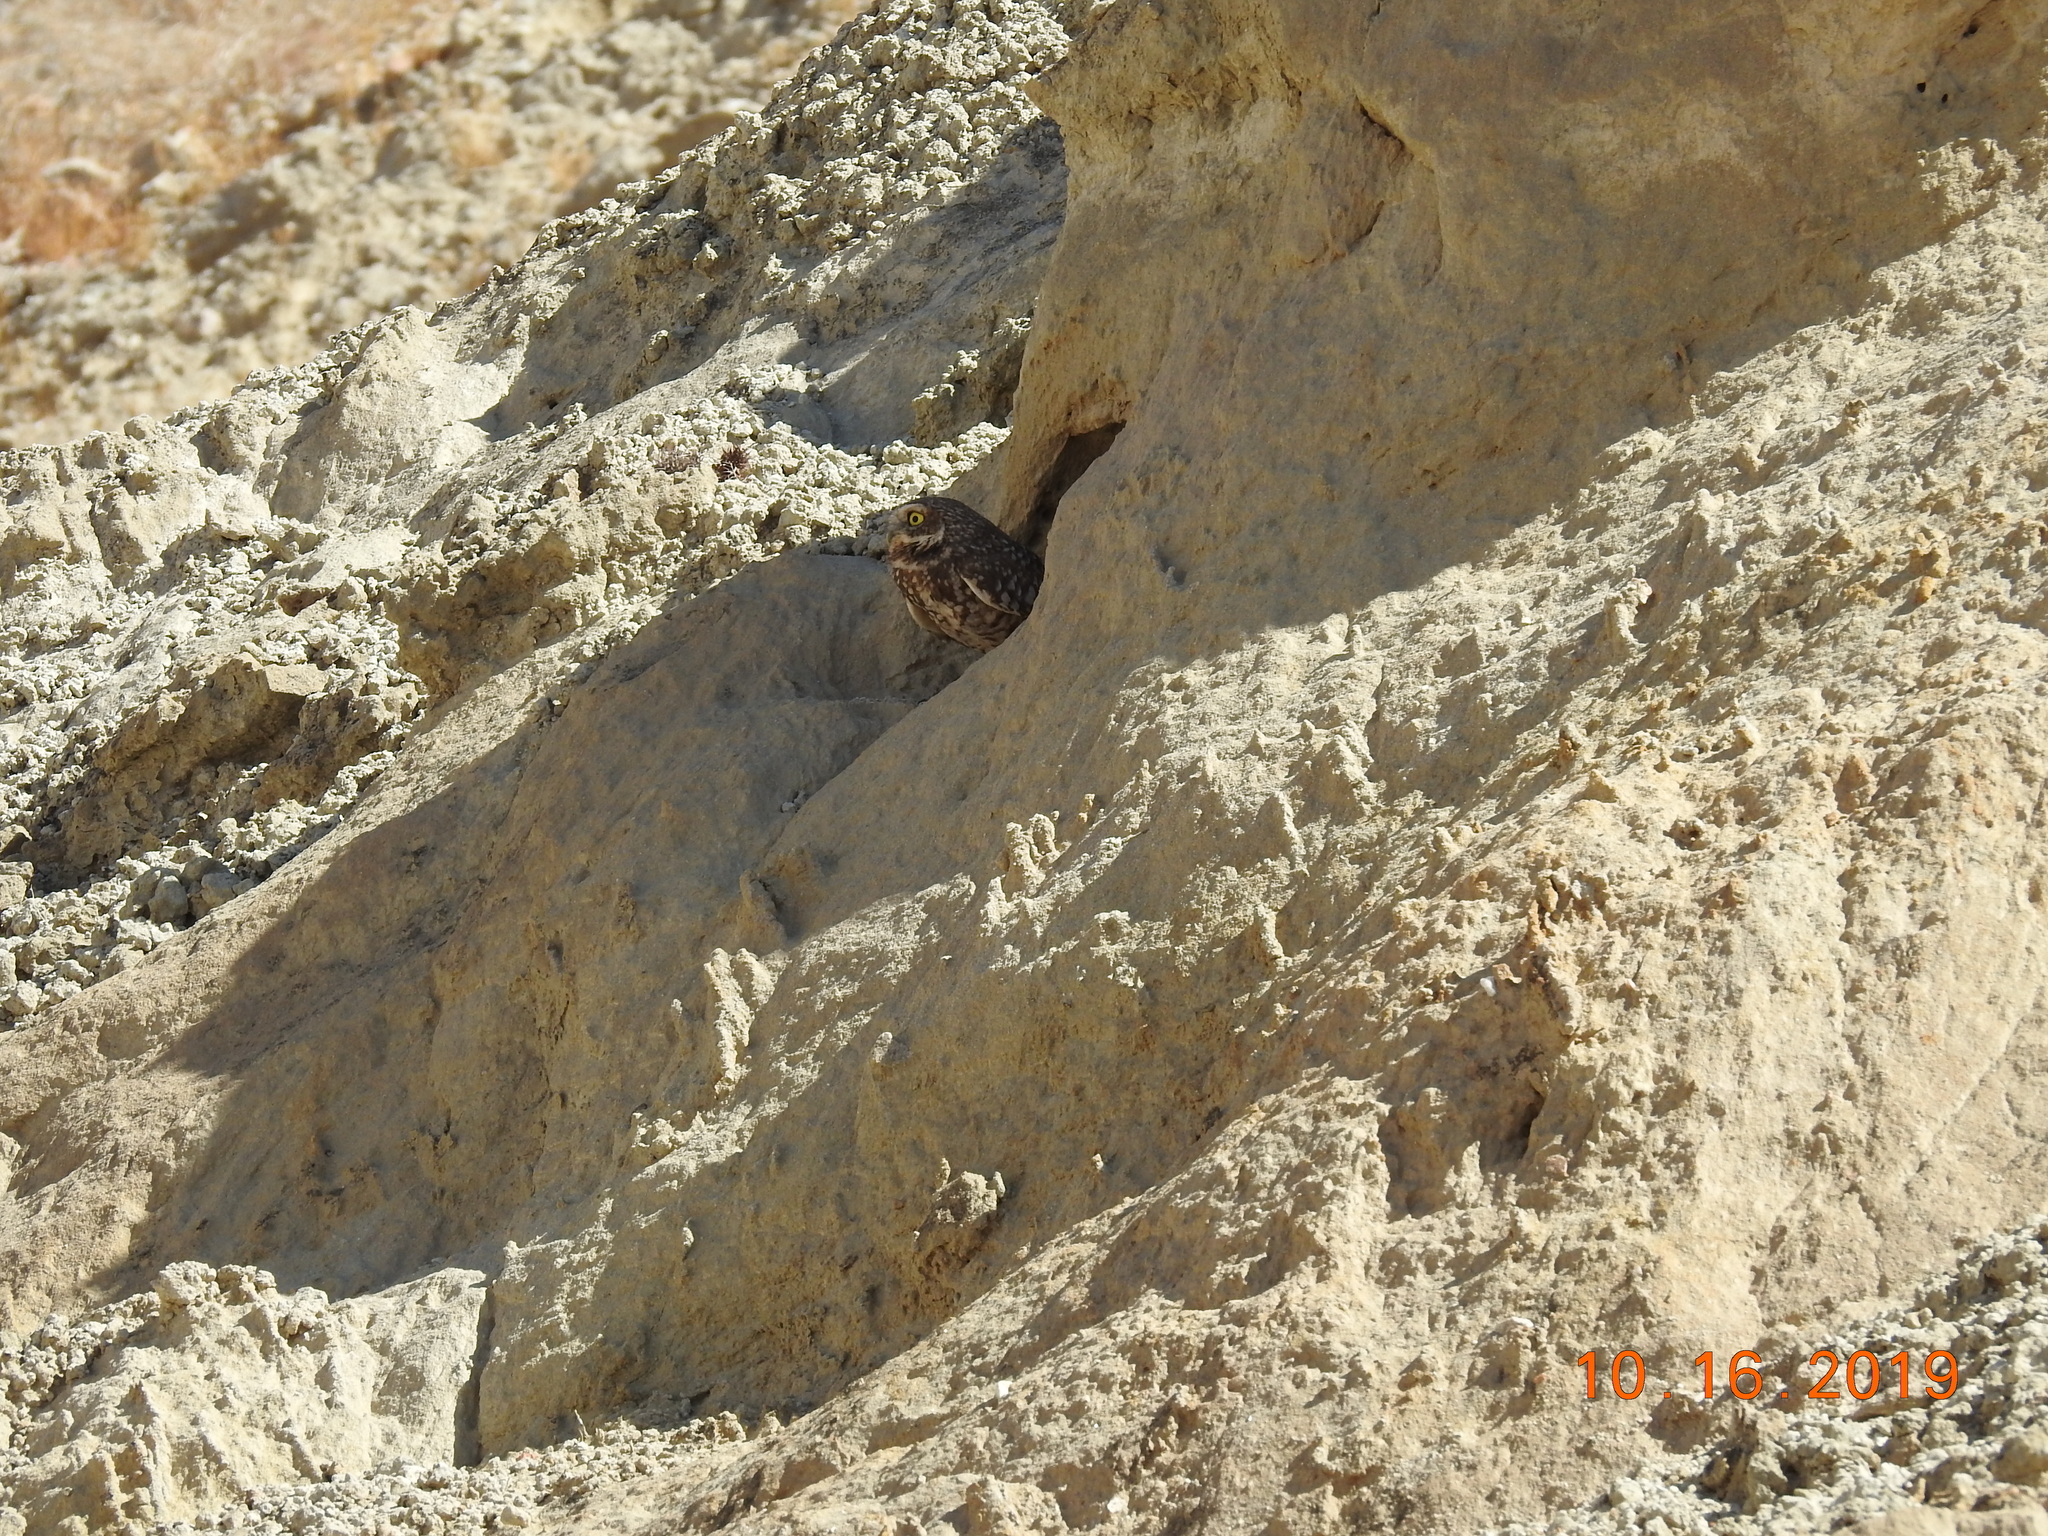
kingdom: Animalia
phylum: Chordata
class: Aves
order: Strigiformes
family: Strigidae
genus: Athene
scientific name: Athene cunicularia
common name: Burrowing owl
